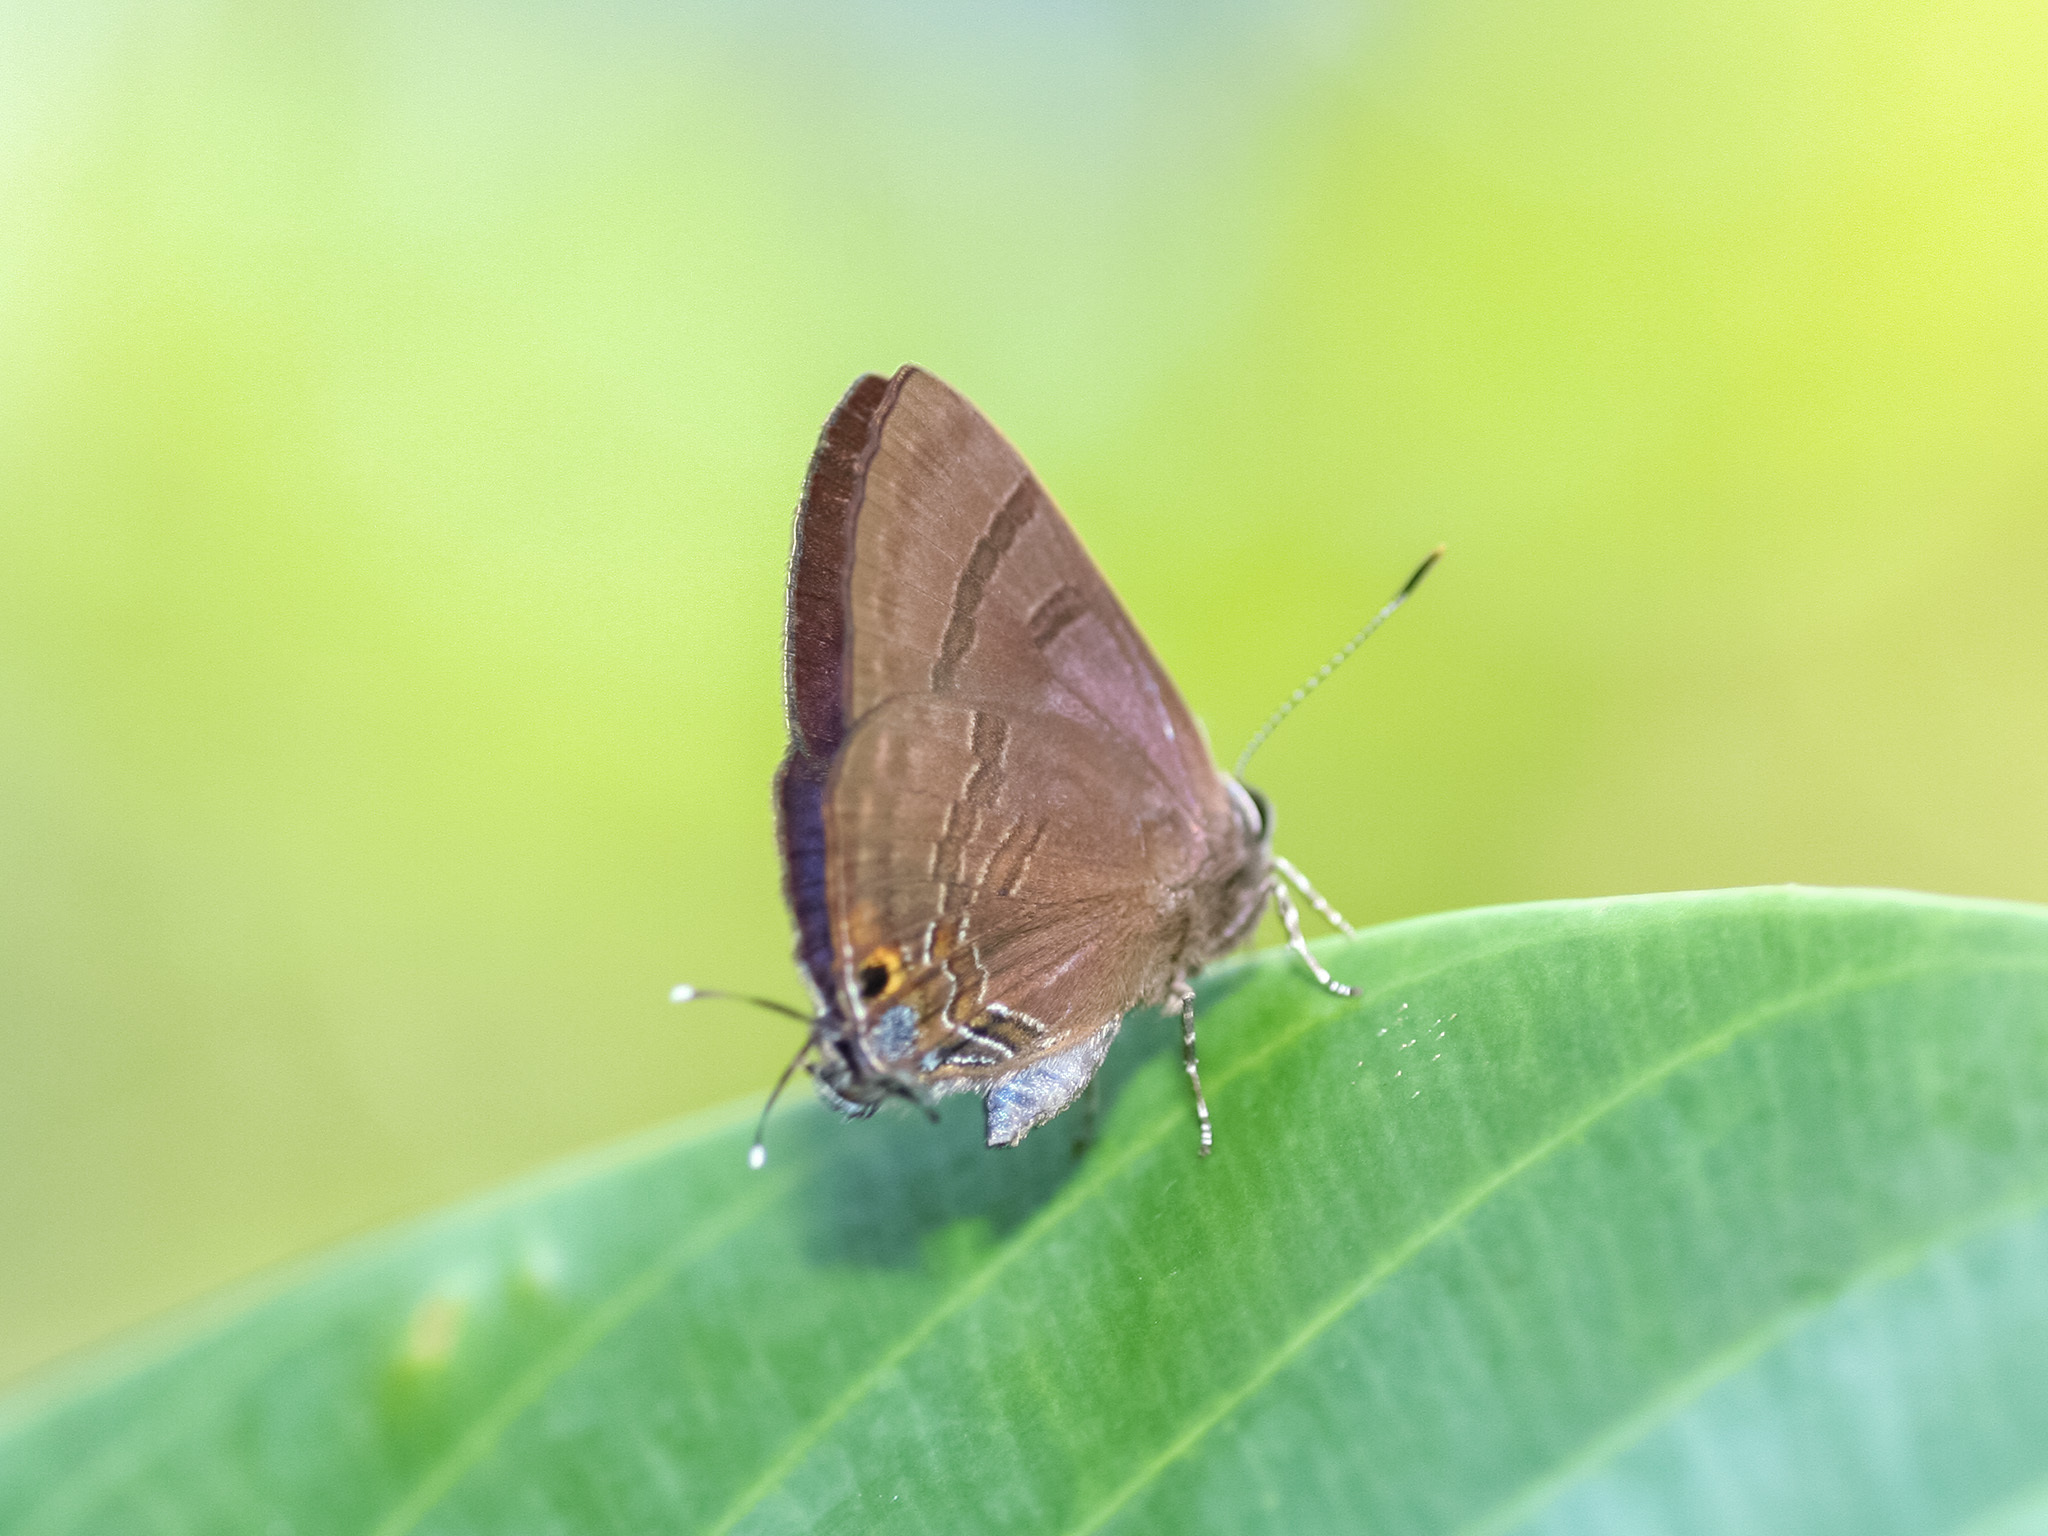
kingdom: Animalia
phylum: Arthropoda
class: Insecta
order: Lepidoptera
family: Lycaenidae
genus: Rapala
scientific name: Rapala varuna
